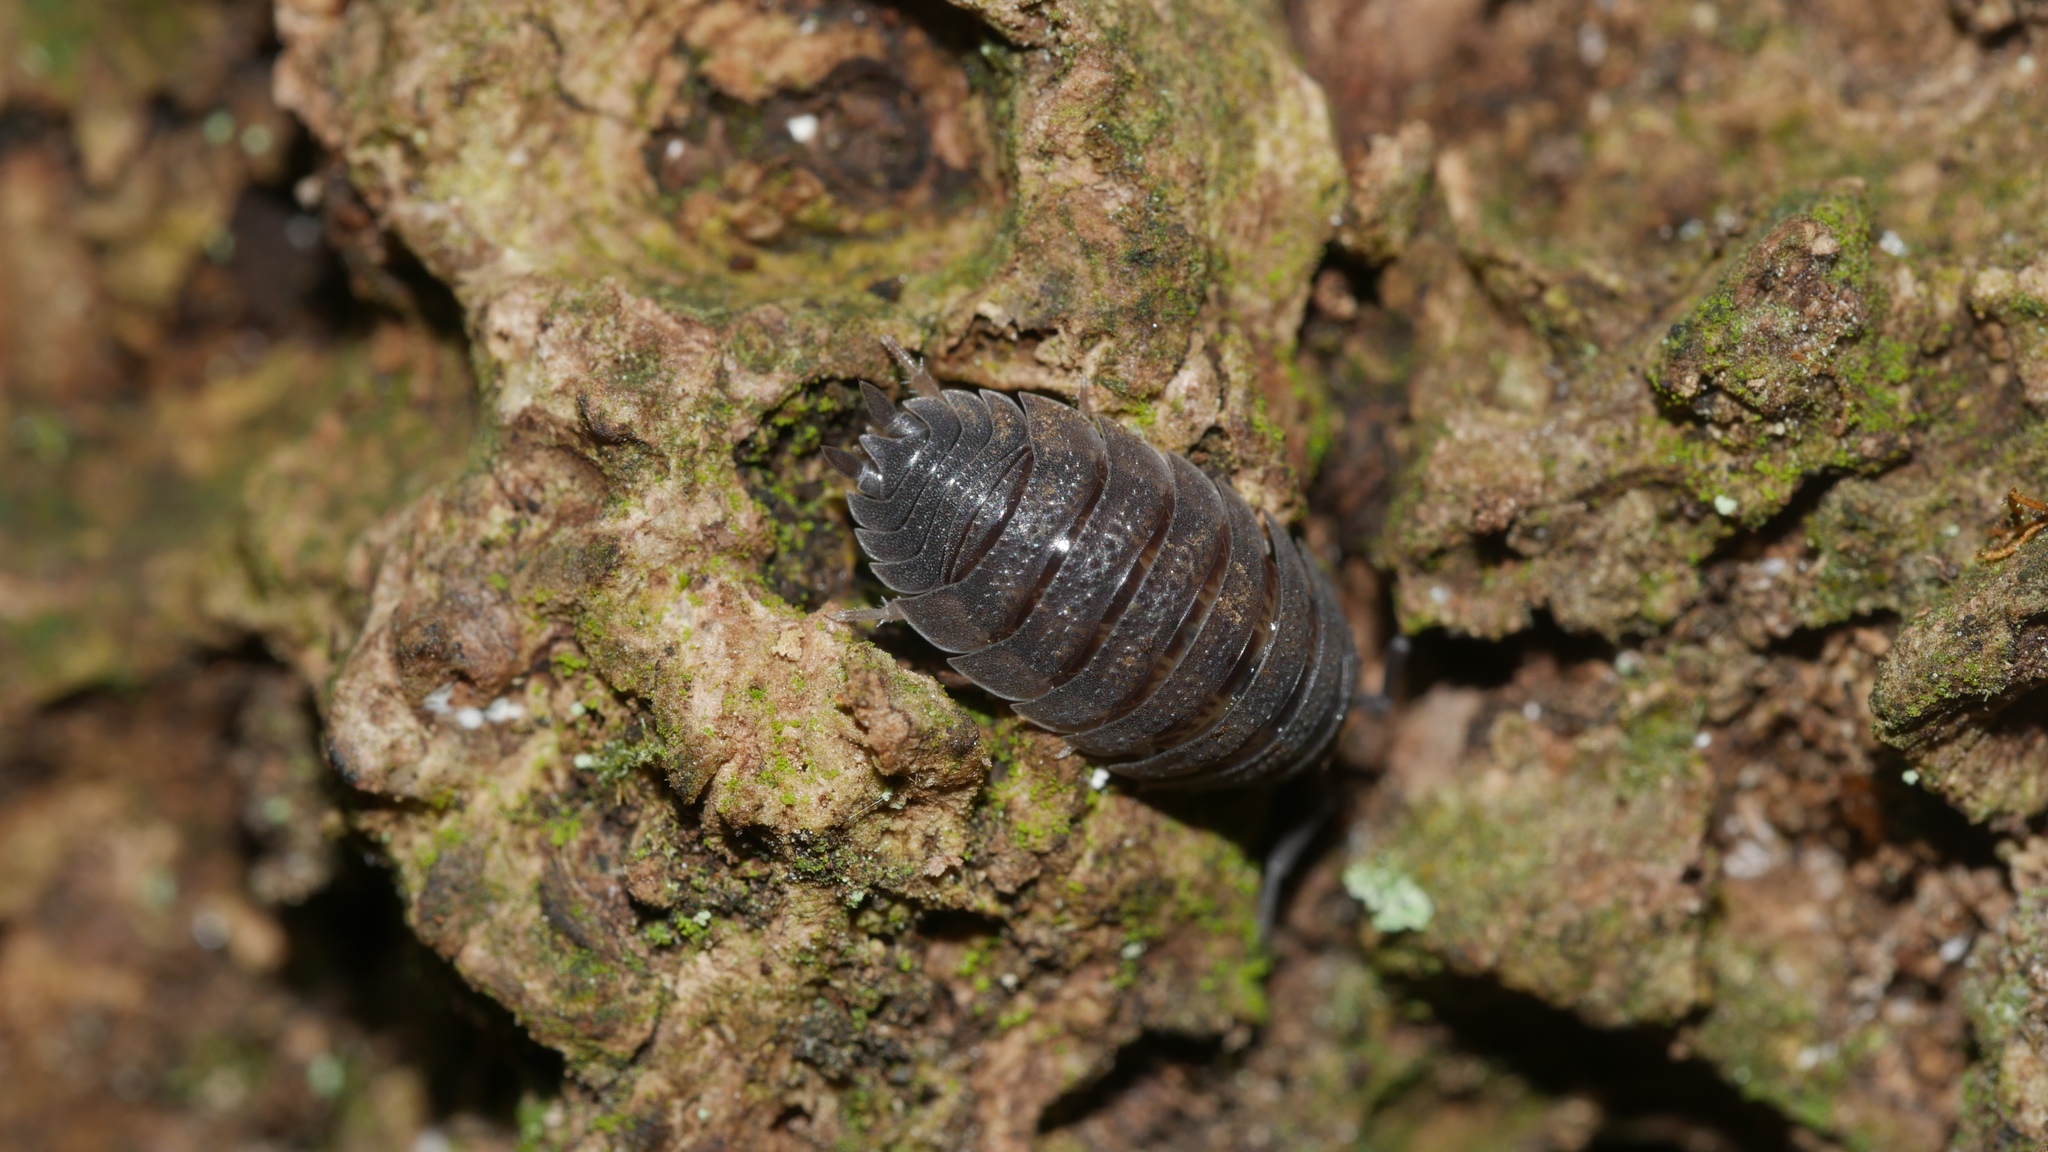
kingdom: Animalia
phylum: Arthropoda
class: Malacostraca
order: Isopoda
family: Porcellionidae
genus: Porcellio
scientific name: Porcellio scaber
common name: Common rough woodlouse
